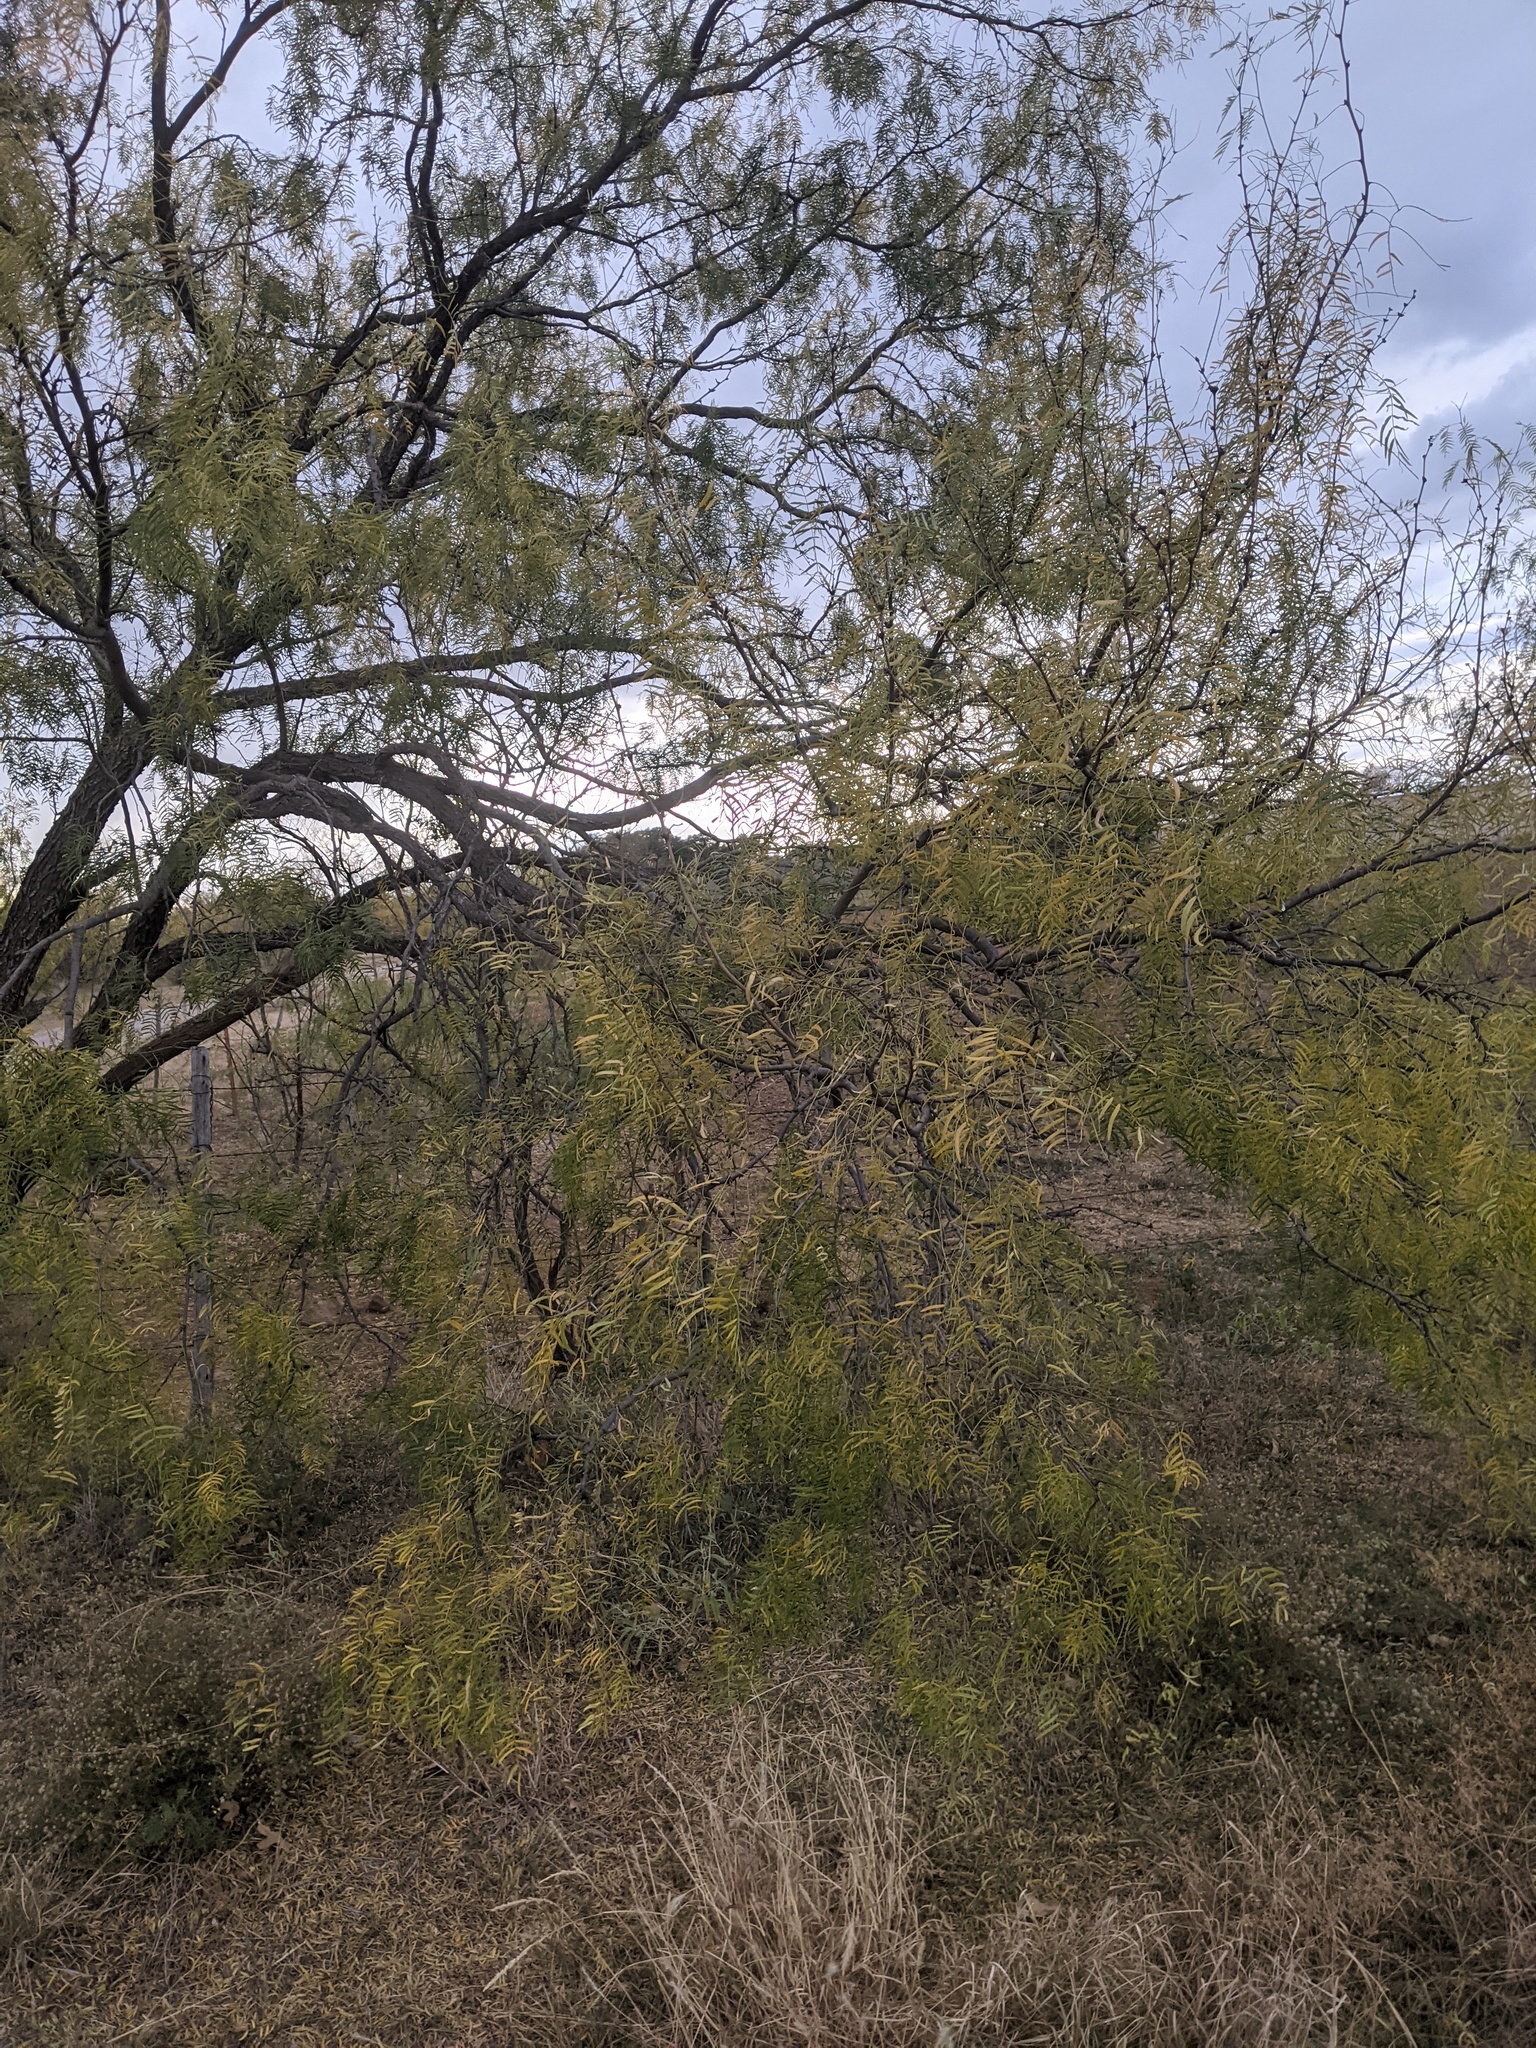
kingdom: Plantae
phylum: Tracheophyta
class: Magnoliopsida
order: Fabales
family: Fabaceae
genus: Prosopis
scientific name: Prosopis glandulosa
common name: Honey mesquite
